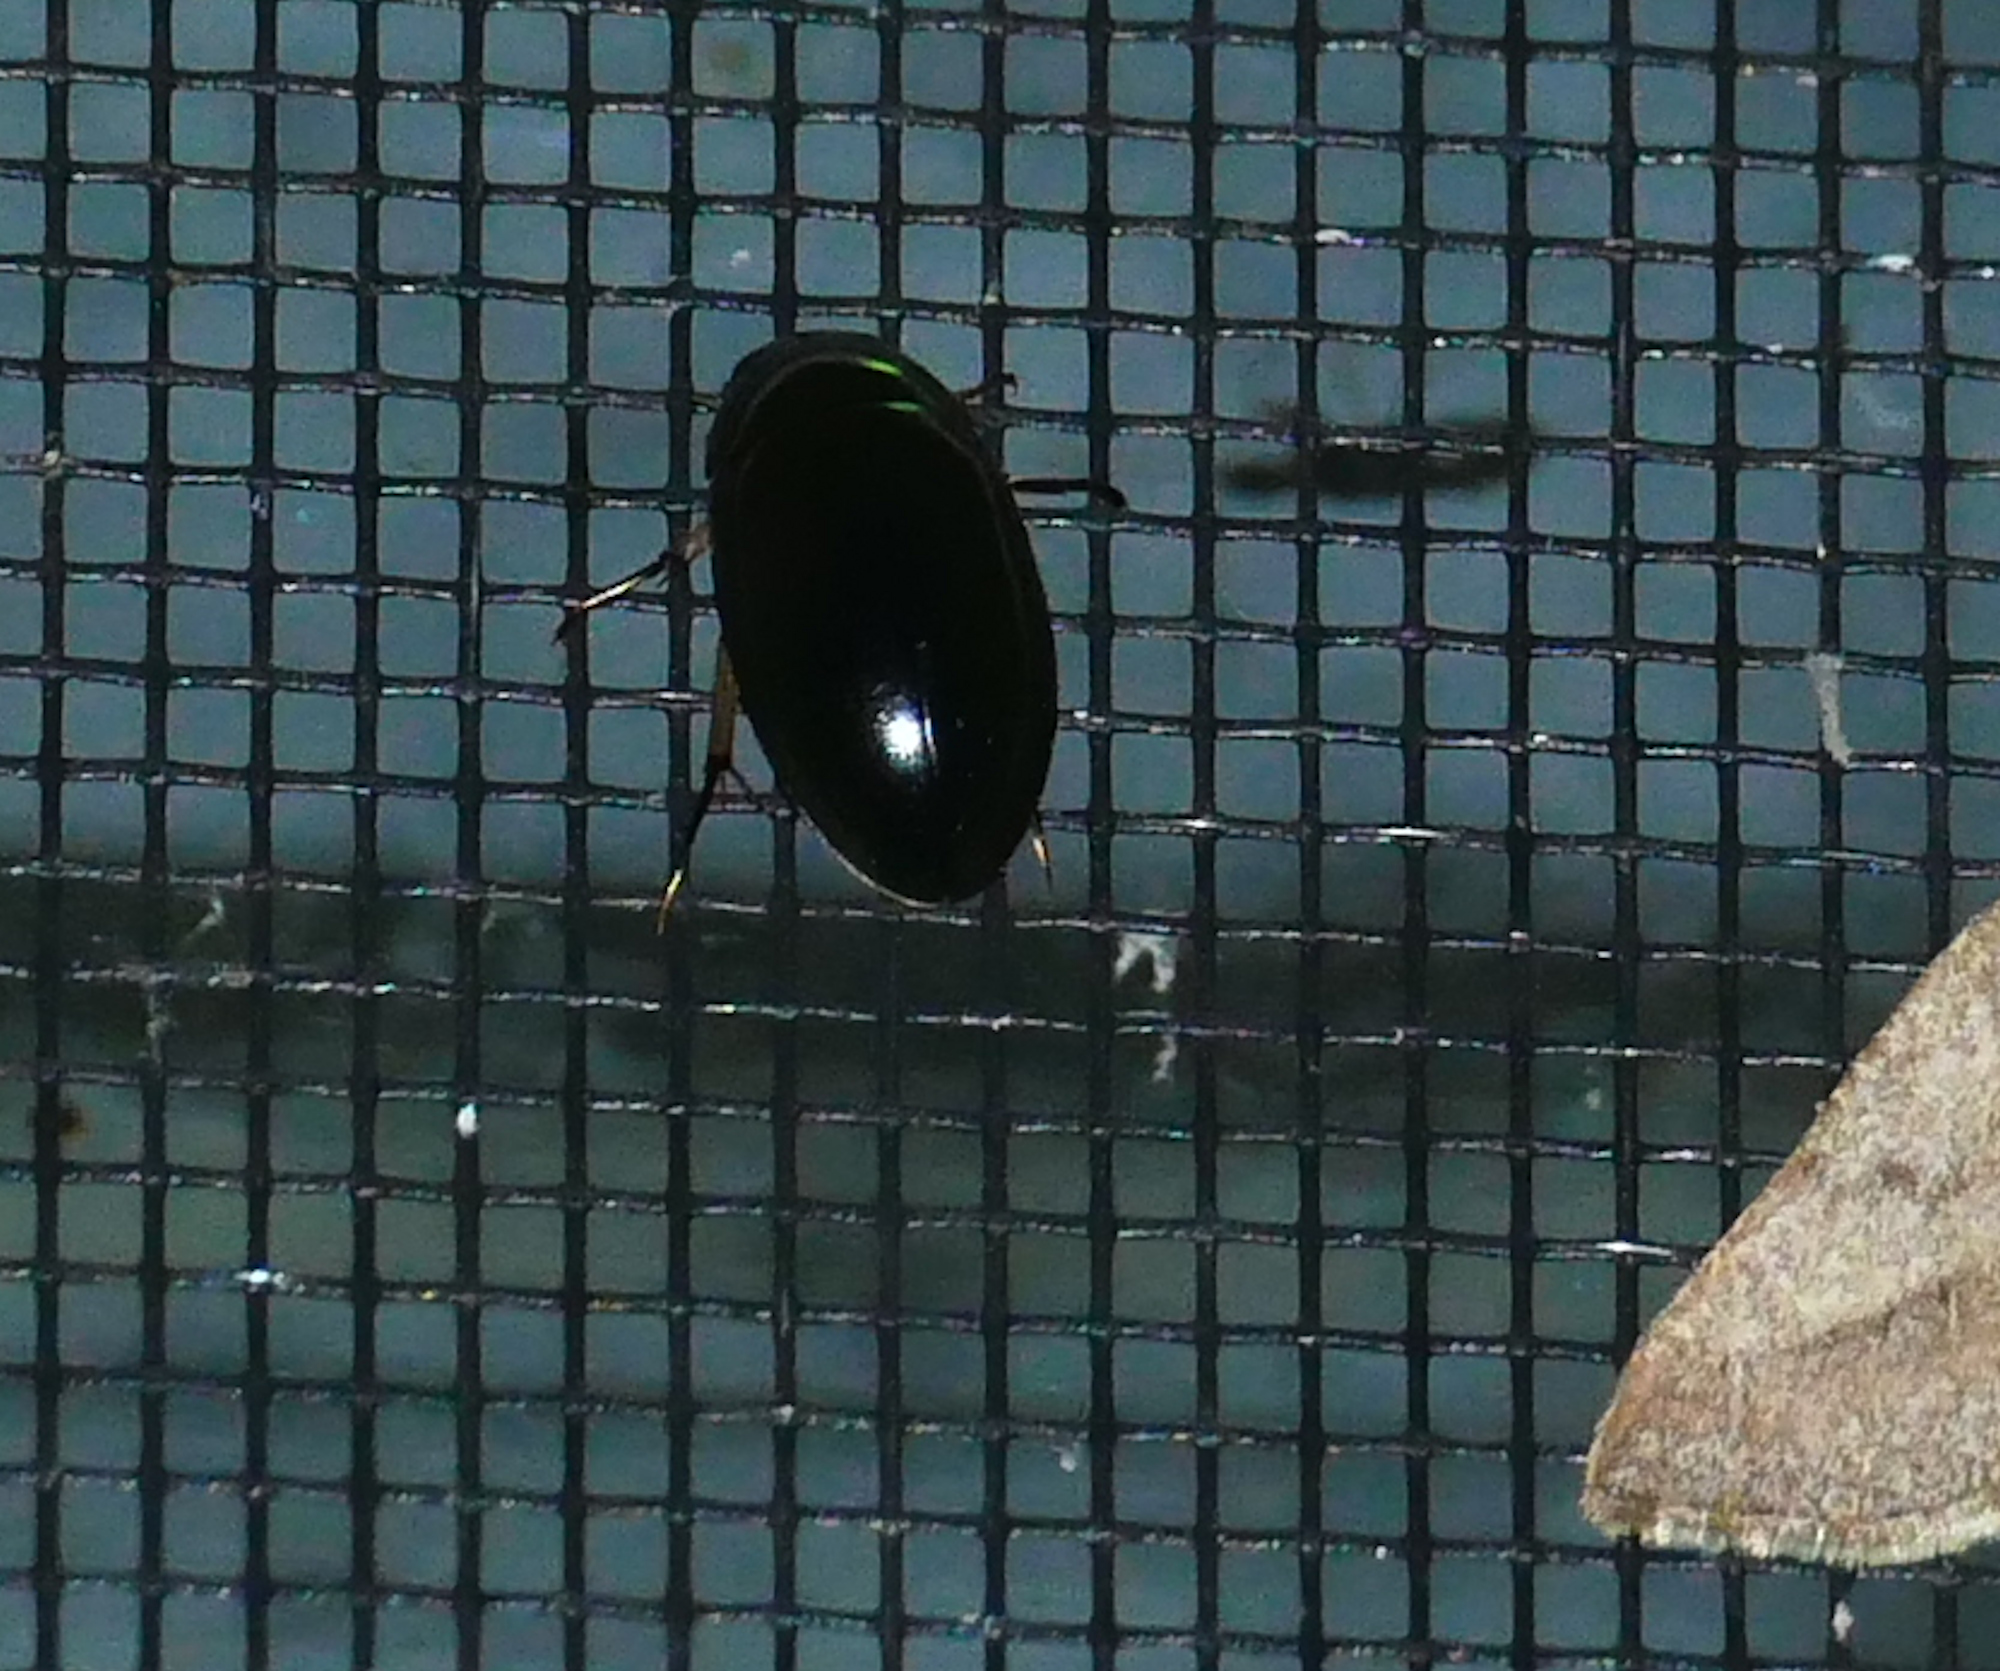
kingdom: Animalia
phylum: Arthropoda
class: Insecta
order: Coleoptera
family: Hydrophilidae
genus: Tropisternus
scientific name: Tropisternus quadristriatus
